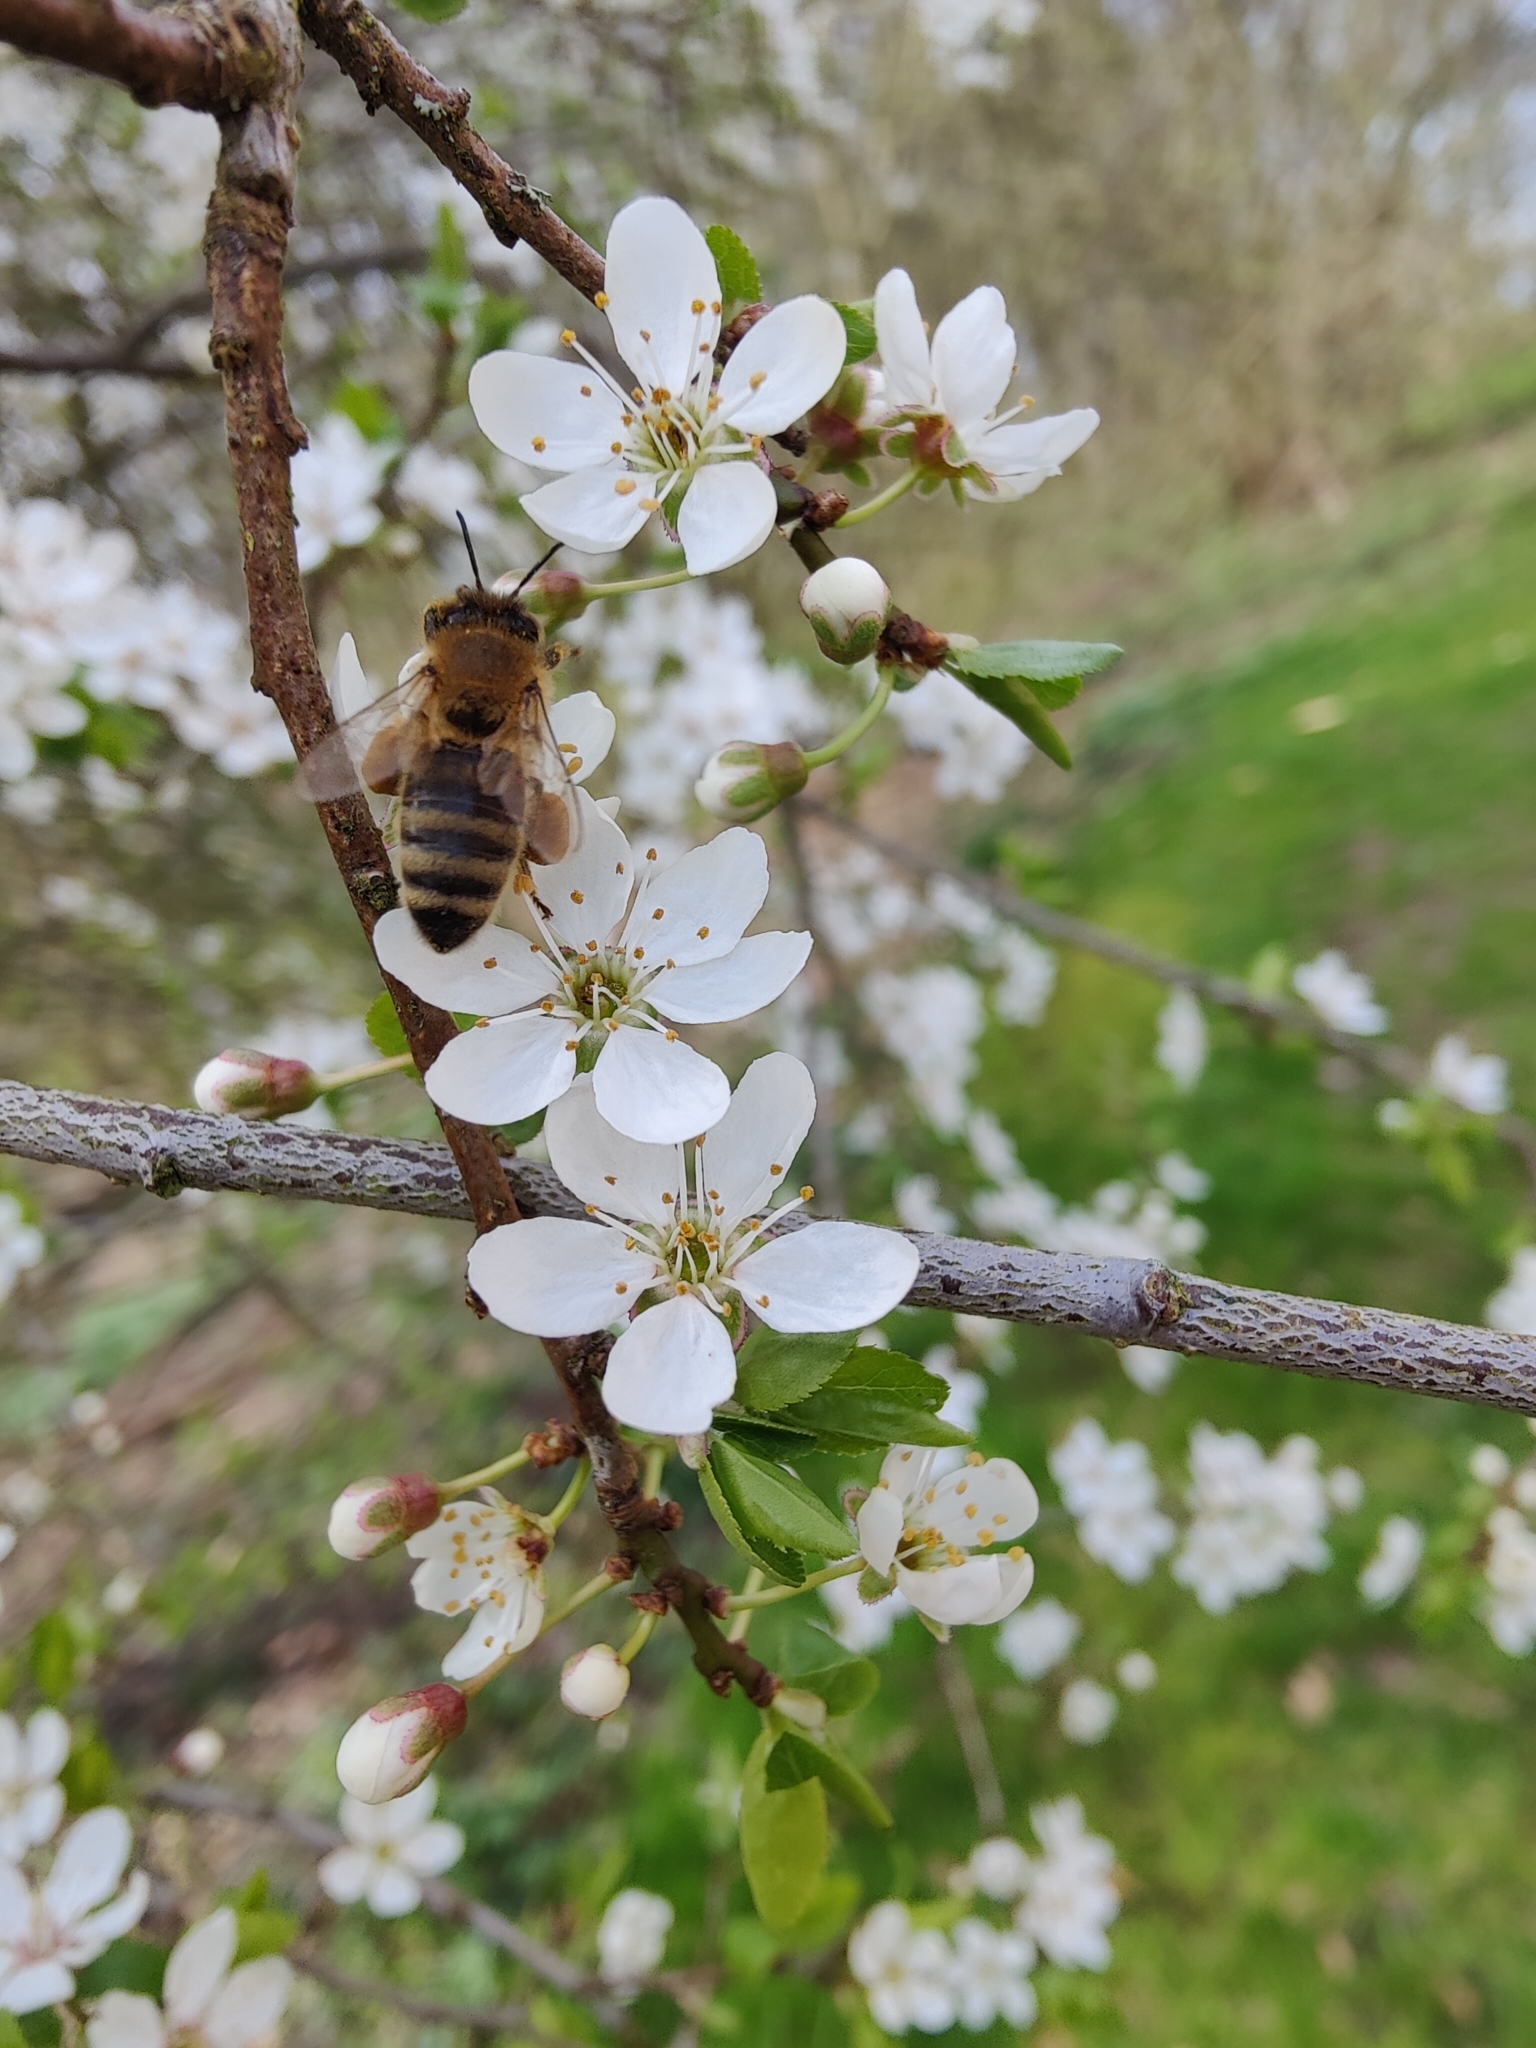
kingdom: Animalia
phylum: Arthropoda
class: Insecta
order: Hymenoptera
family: Apidae
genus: Apis
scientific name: Apis mellifera
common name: Honey bee
